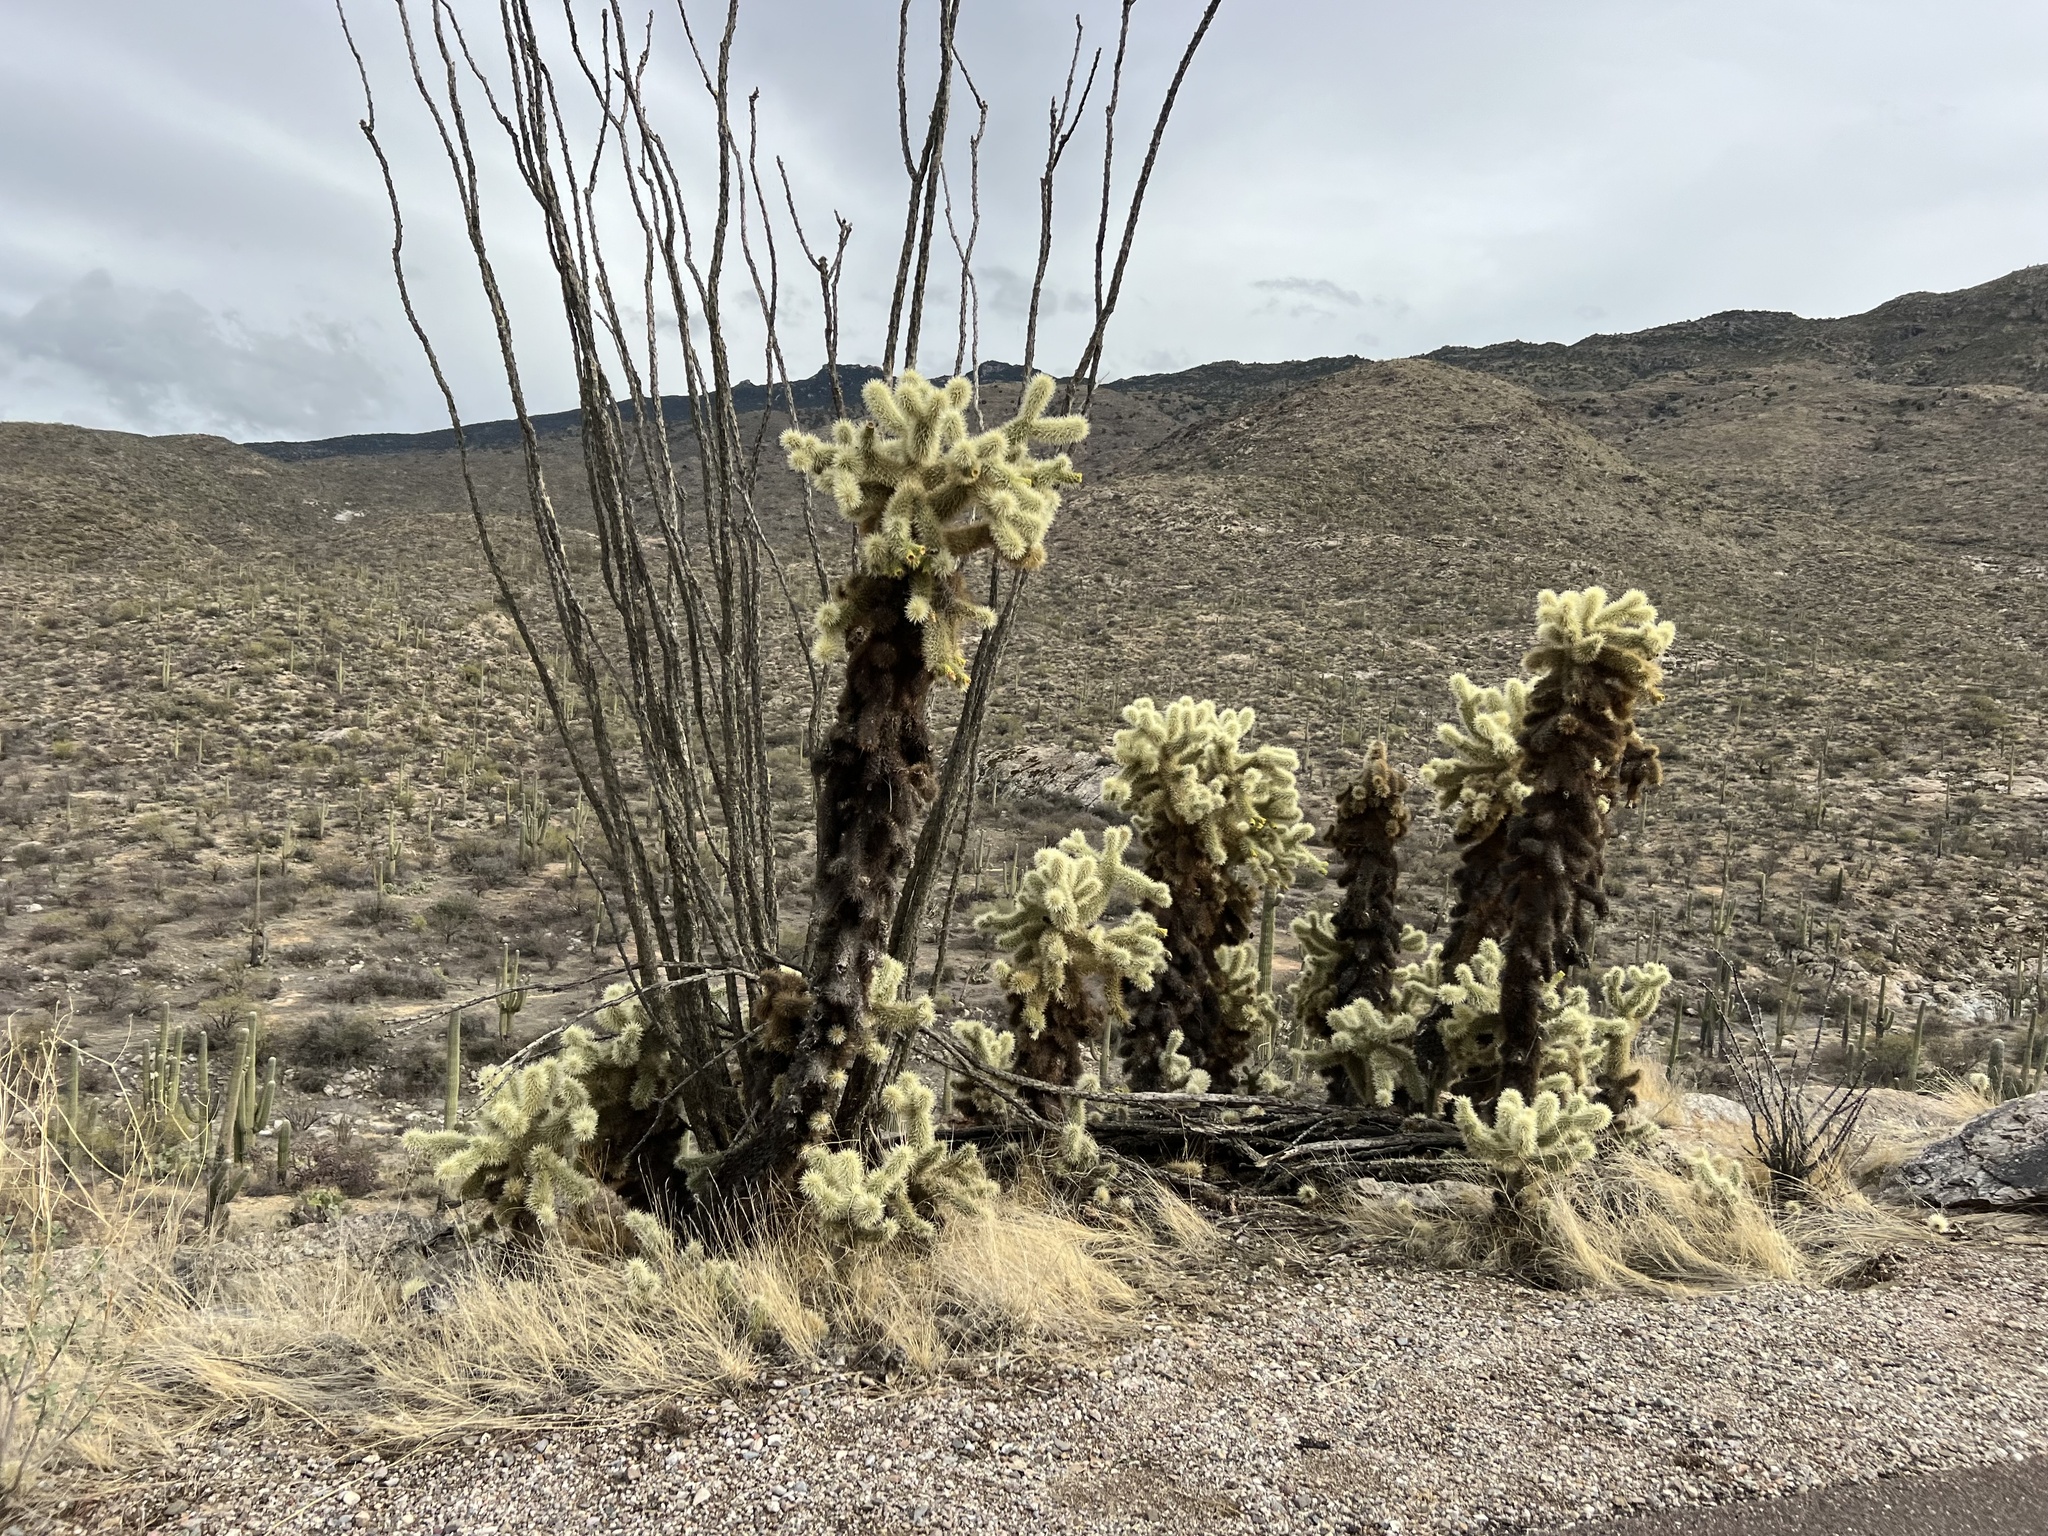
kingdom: Plantae
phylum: Tracheophyta
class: Magnoliopsida
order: Caryophyllales
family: Cactaceae
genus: Cylindropuntia
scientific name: Cylindropuntia fosbergii
